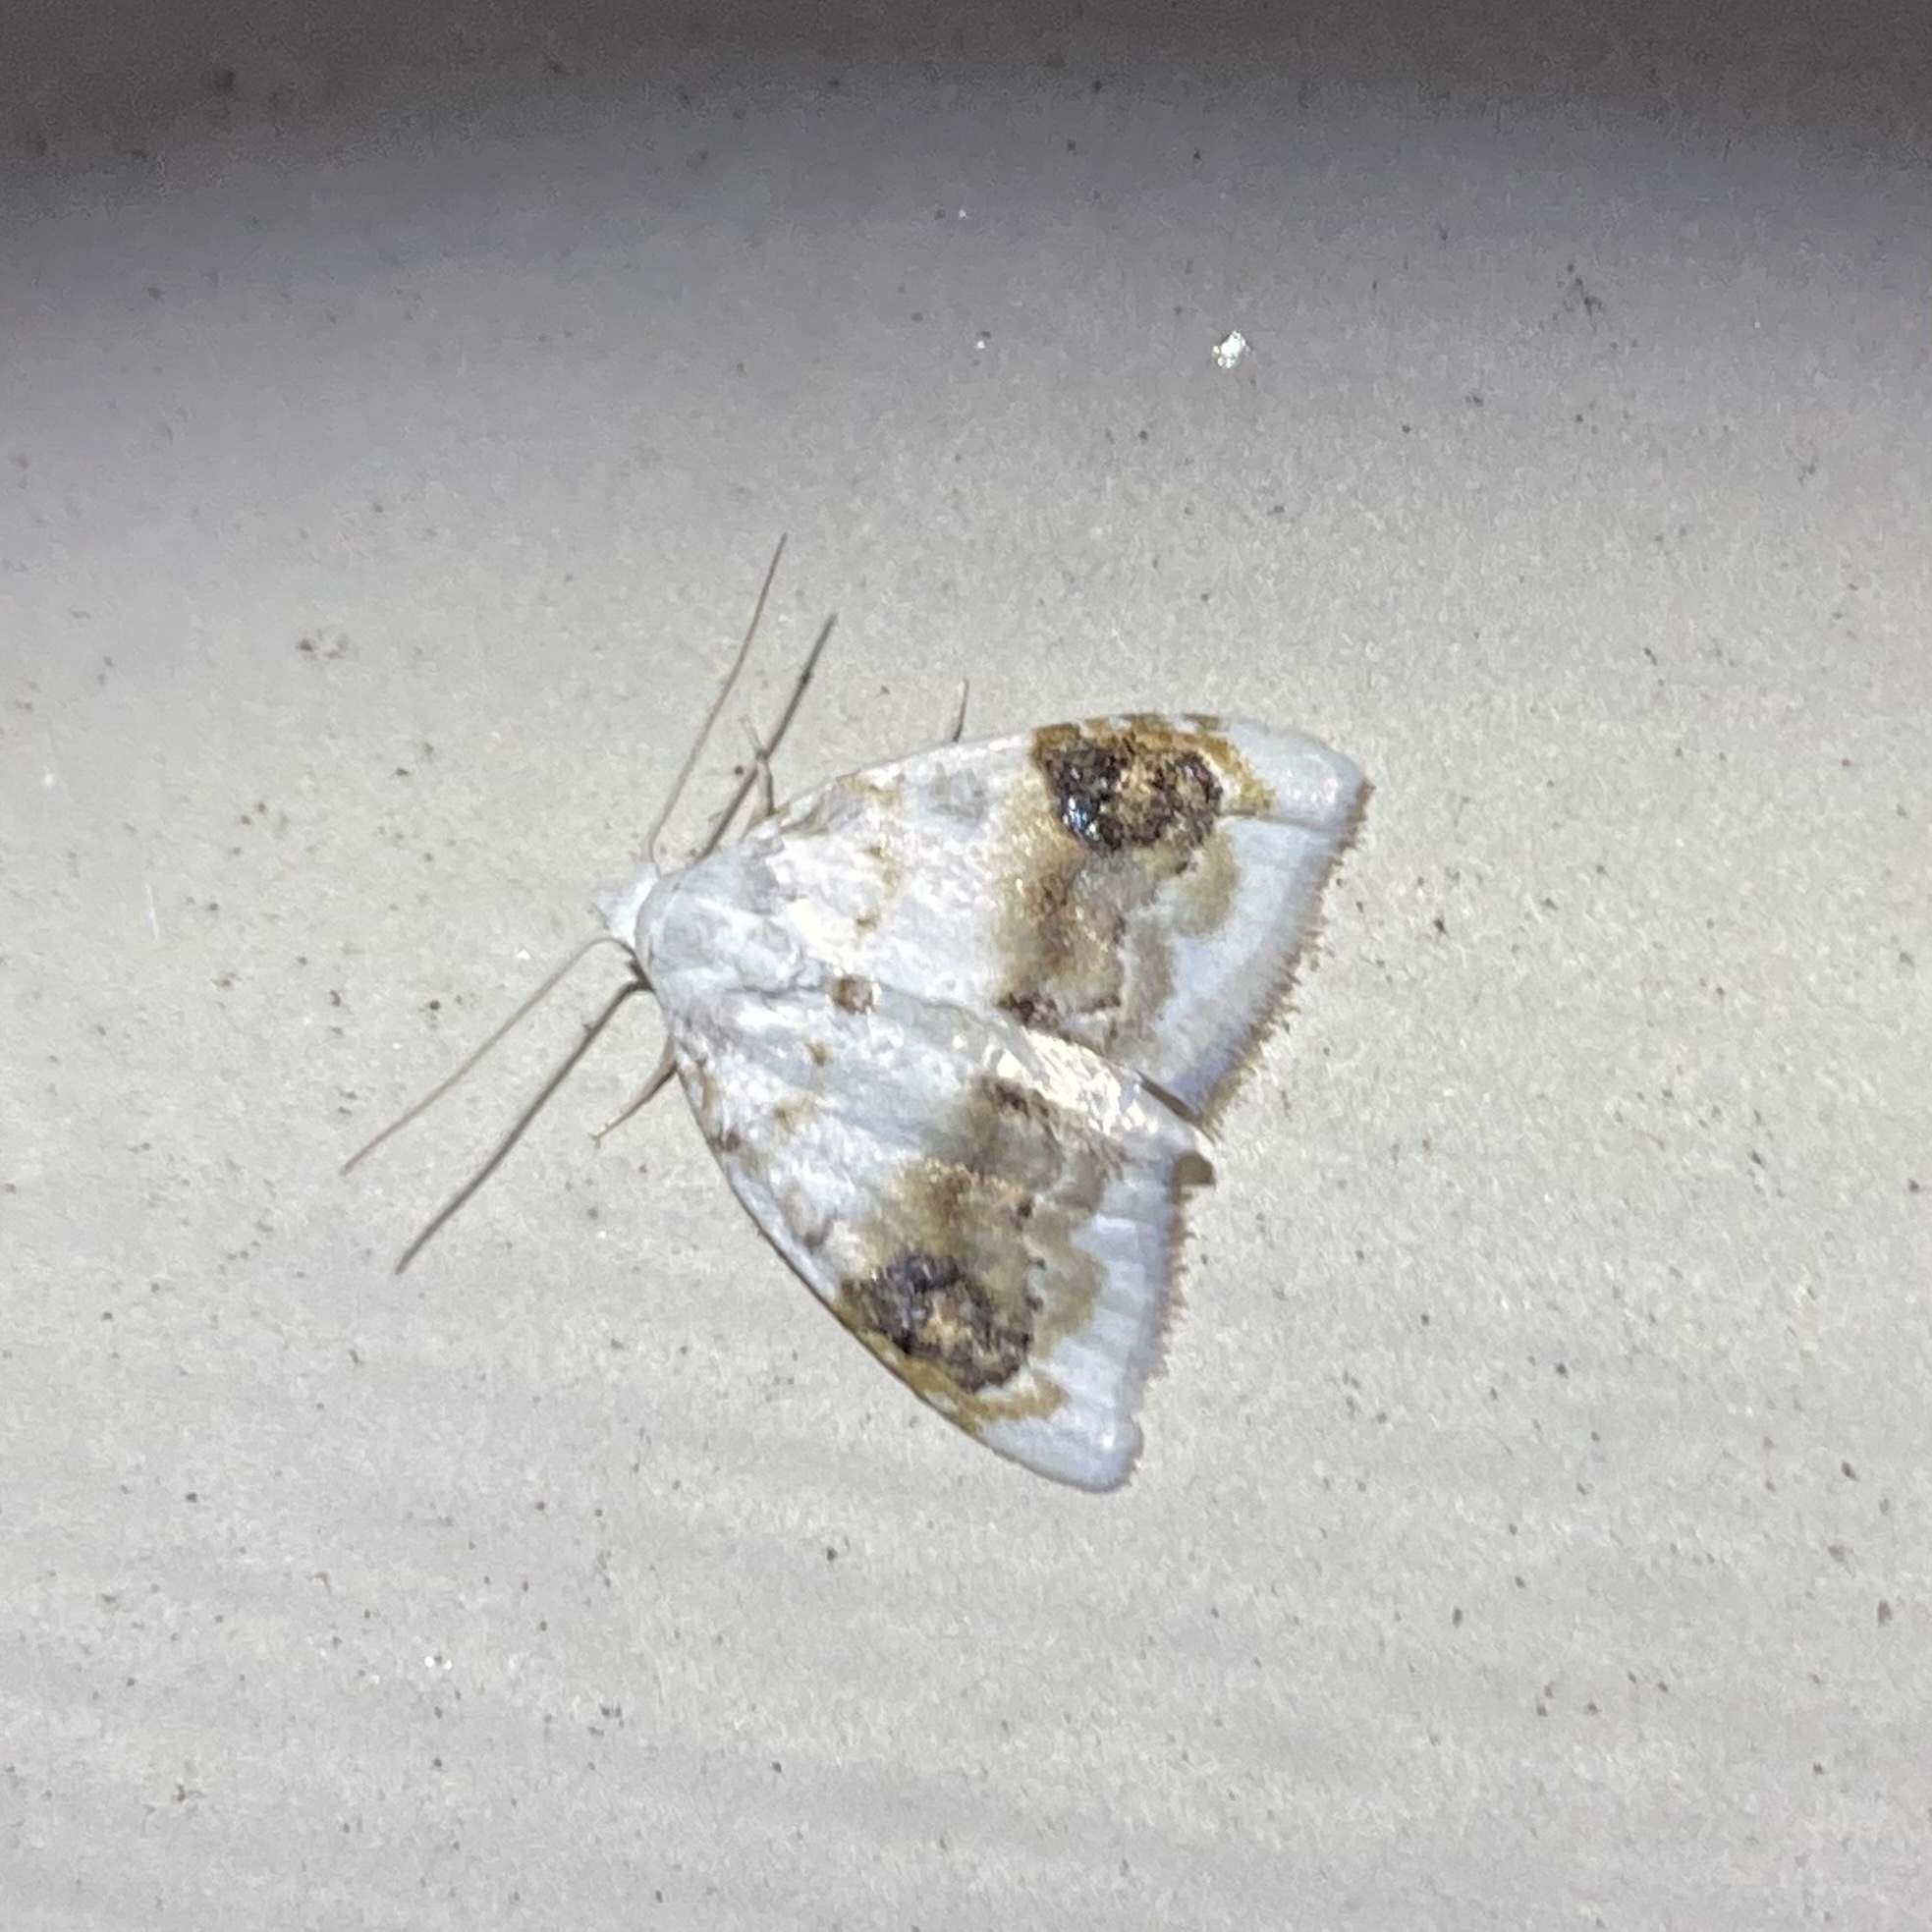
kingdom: Animalia
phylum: Arthropoda
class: Insecta
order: Lepidoptera
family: Nolidae
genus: Nola
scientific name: Nola cilicoides
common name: Blurry-patched nola moth
